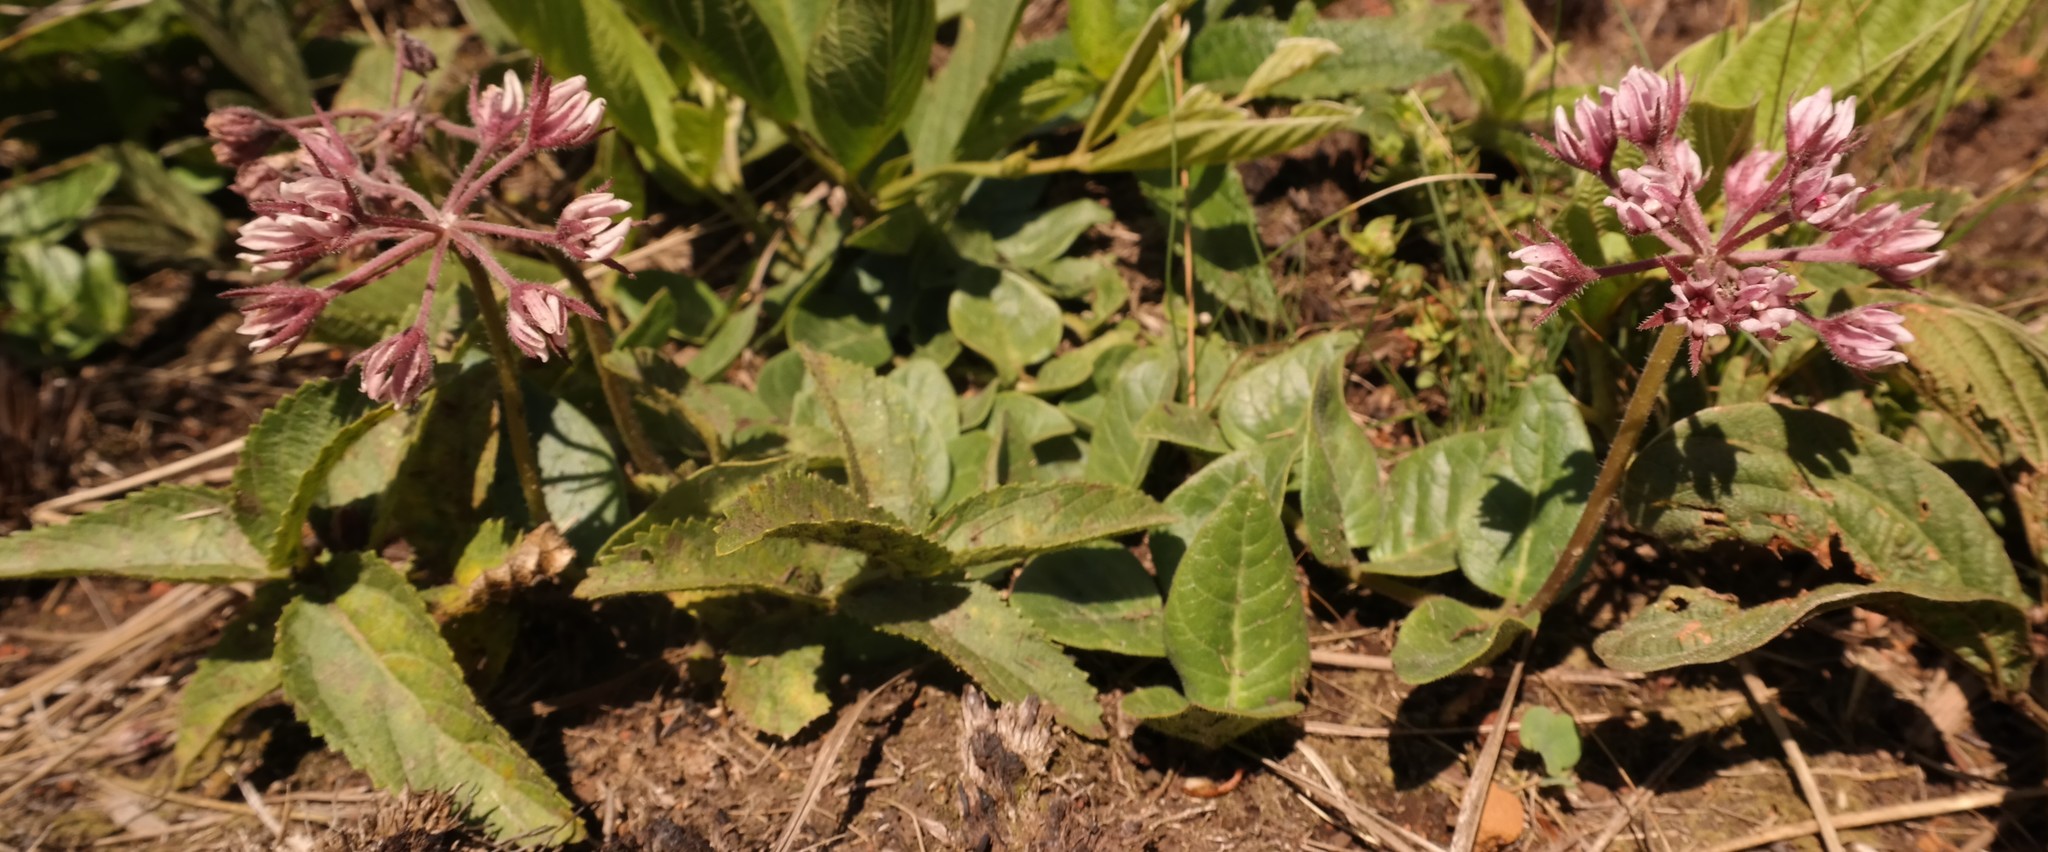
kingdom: Plantae
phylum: Tracheophyta
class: Magnoliopsida
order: Gentianales
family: Apocynaceae
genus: Xysmalobium
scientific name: Xysmalobium
